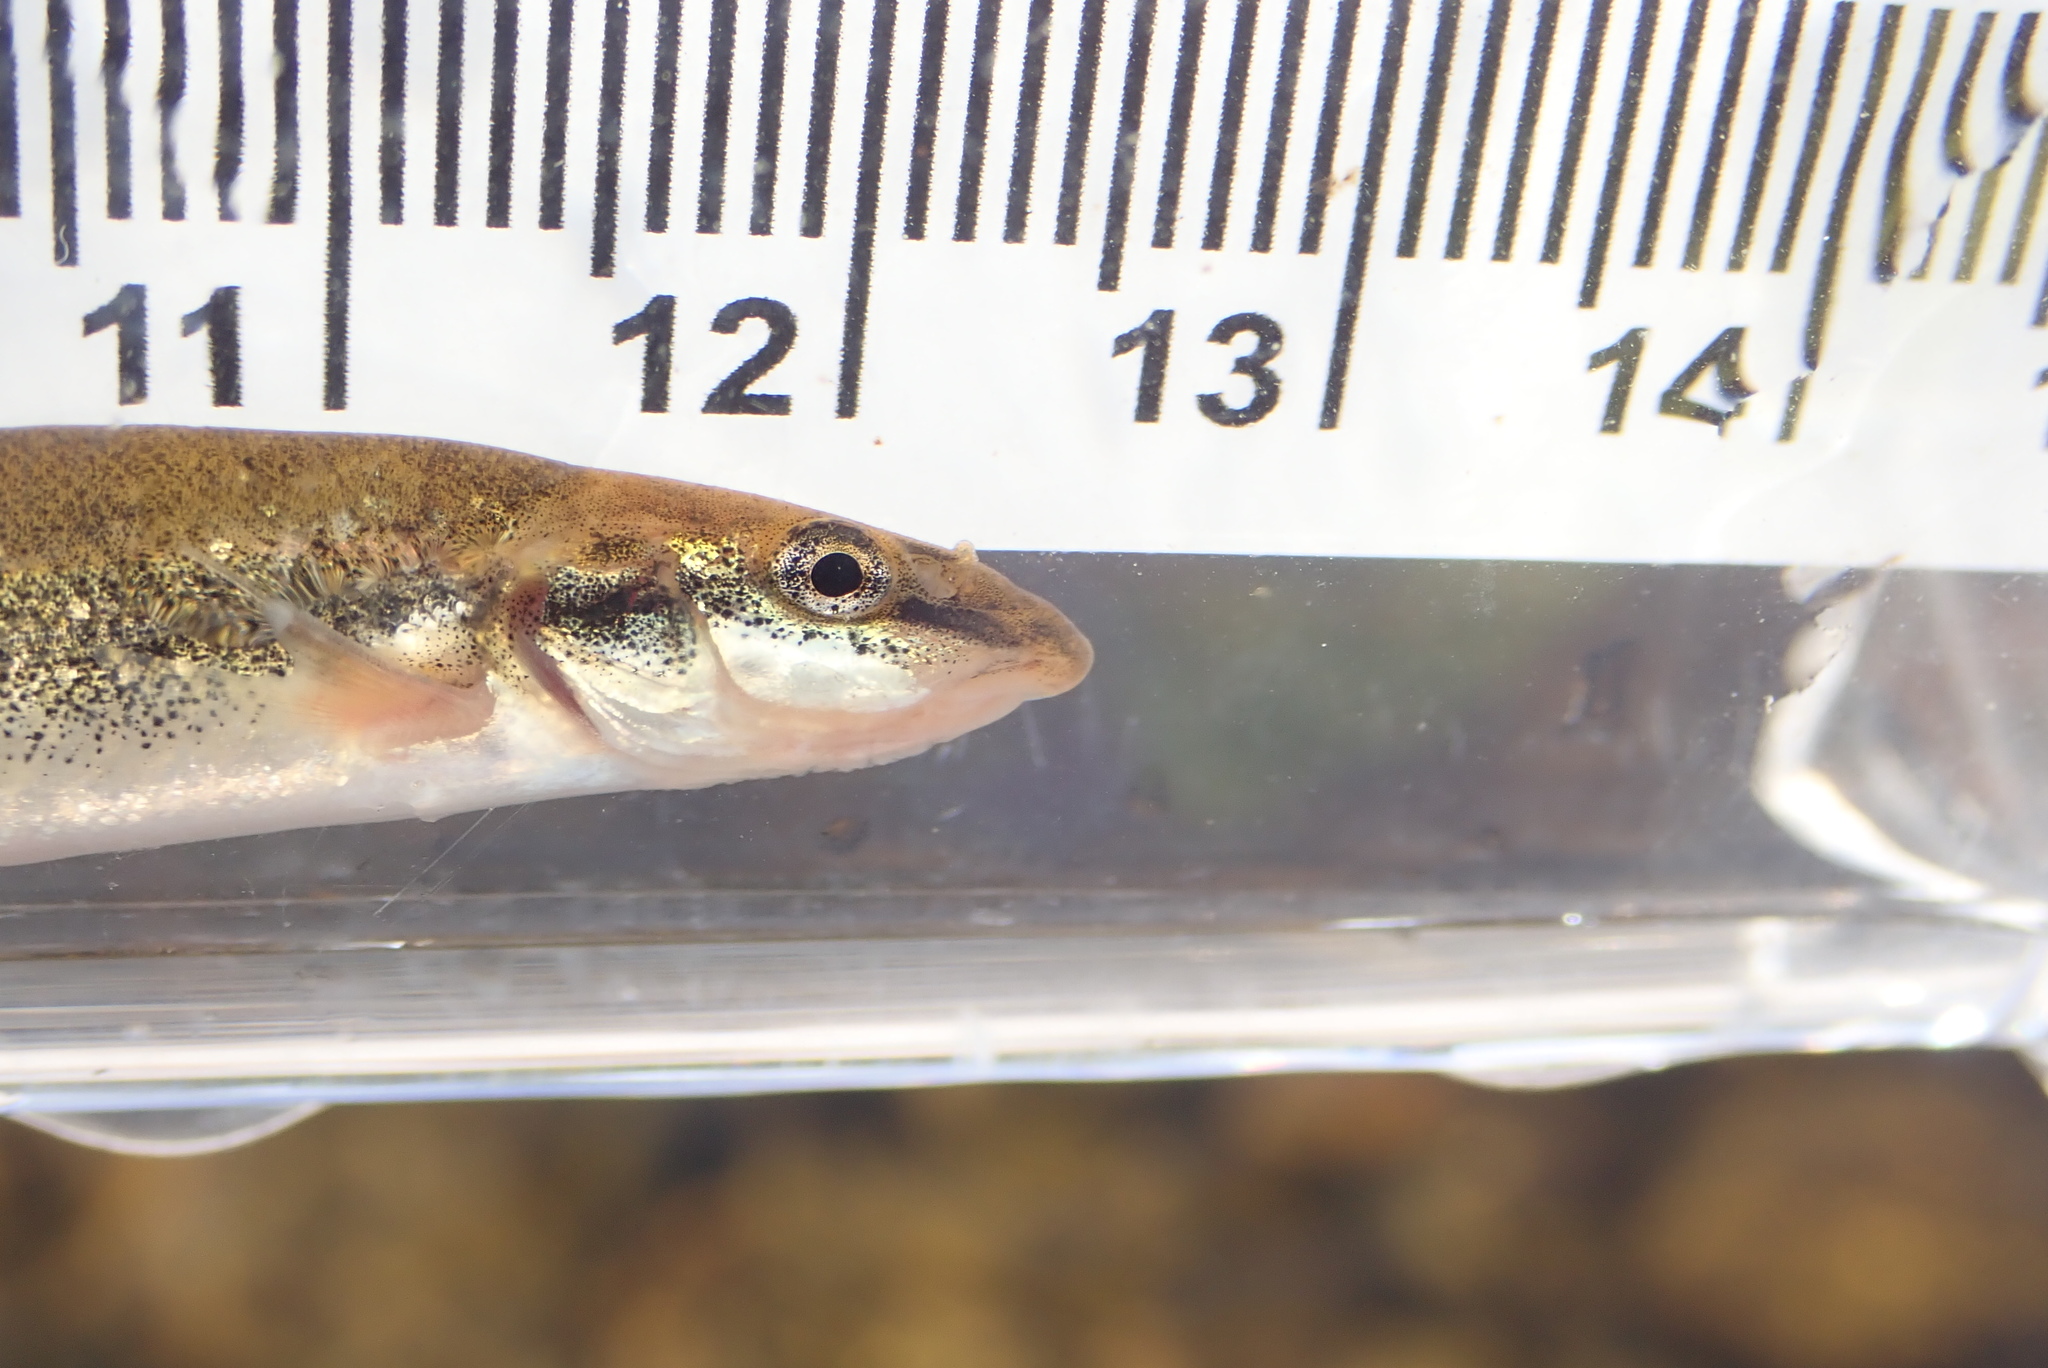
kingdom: Animalia
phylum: Chordata
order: Cypriniformes
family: Cyprinidae
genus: Rhinichthys
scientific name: Rhinichthys cataractae
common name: Longnose dace
